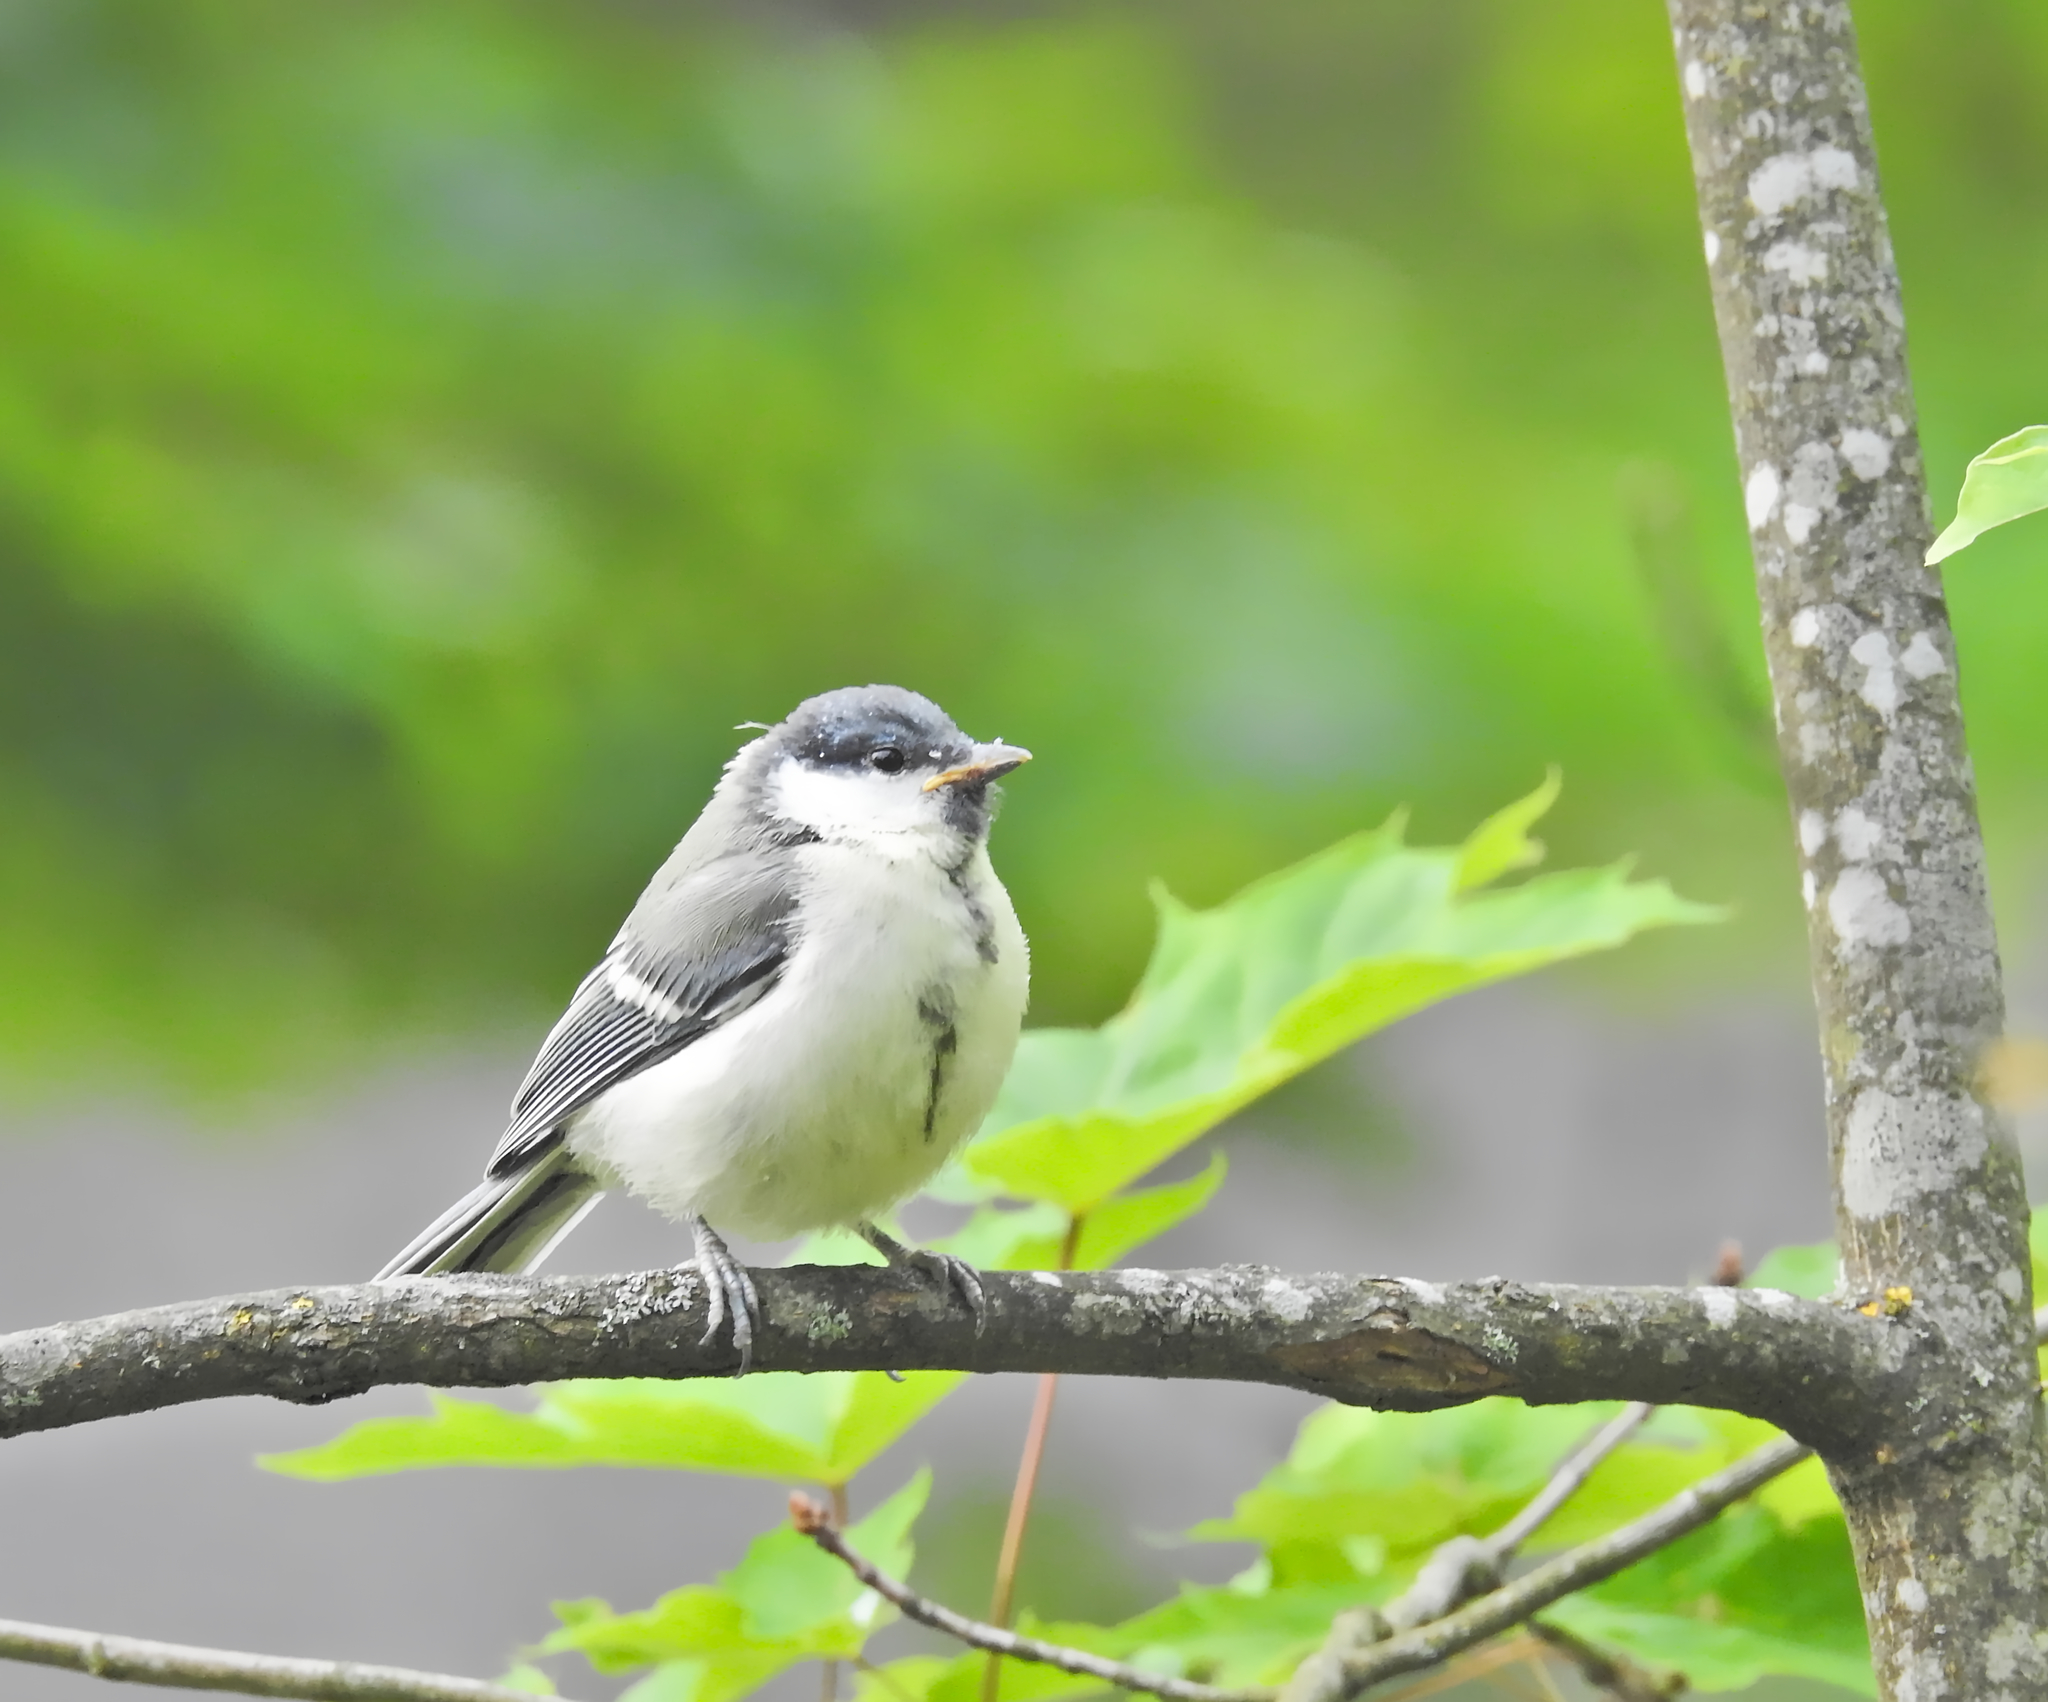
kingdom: Animalia
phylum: Chordata
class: Aves
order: Passeriformes
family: Paridae
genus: Parus
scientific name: Parus major
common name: Great tit
